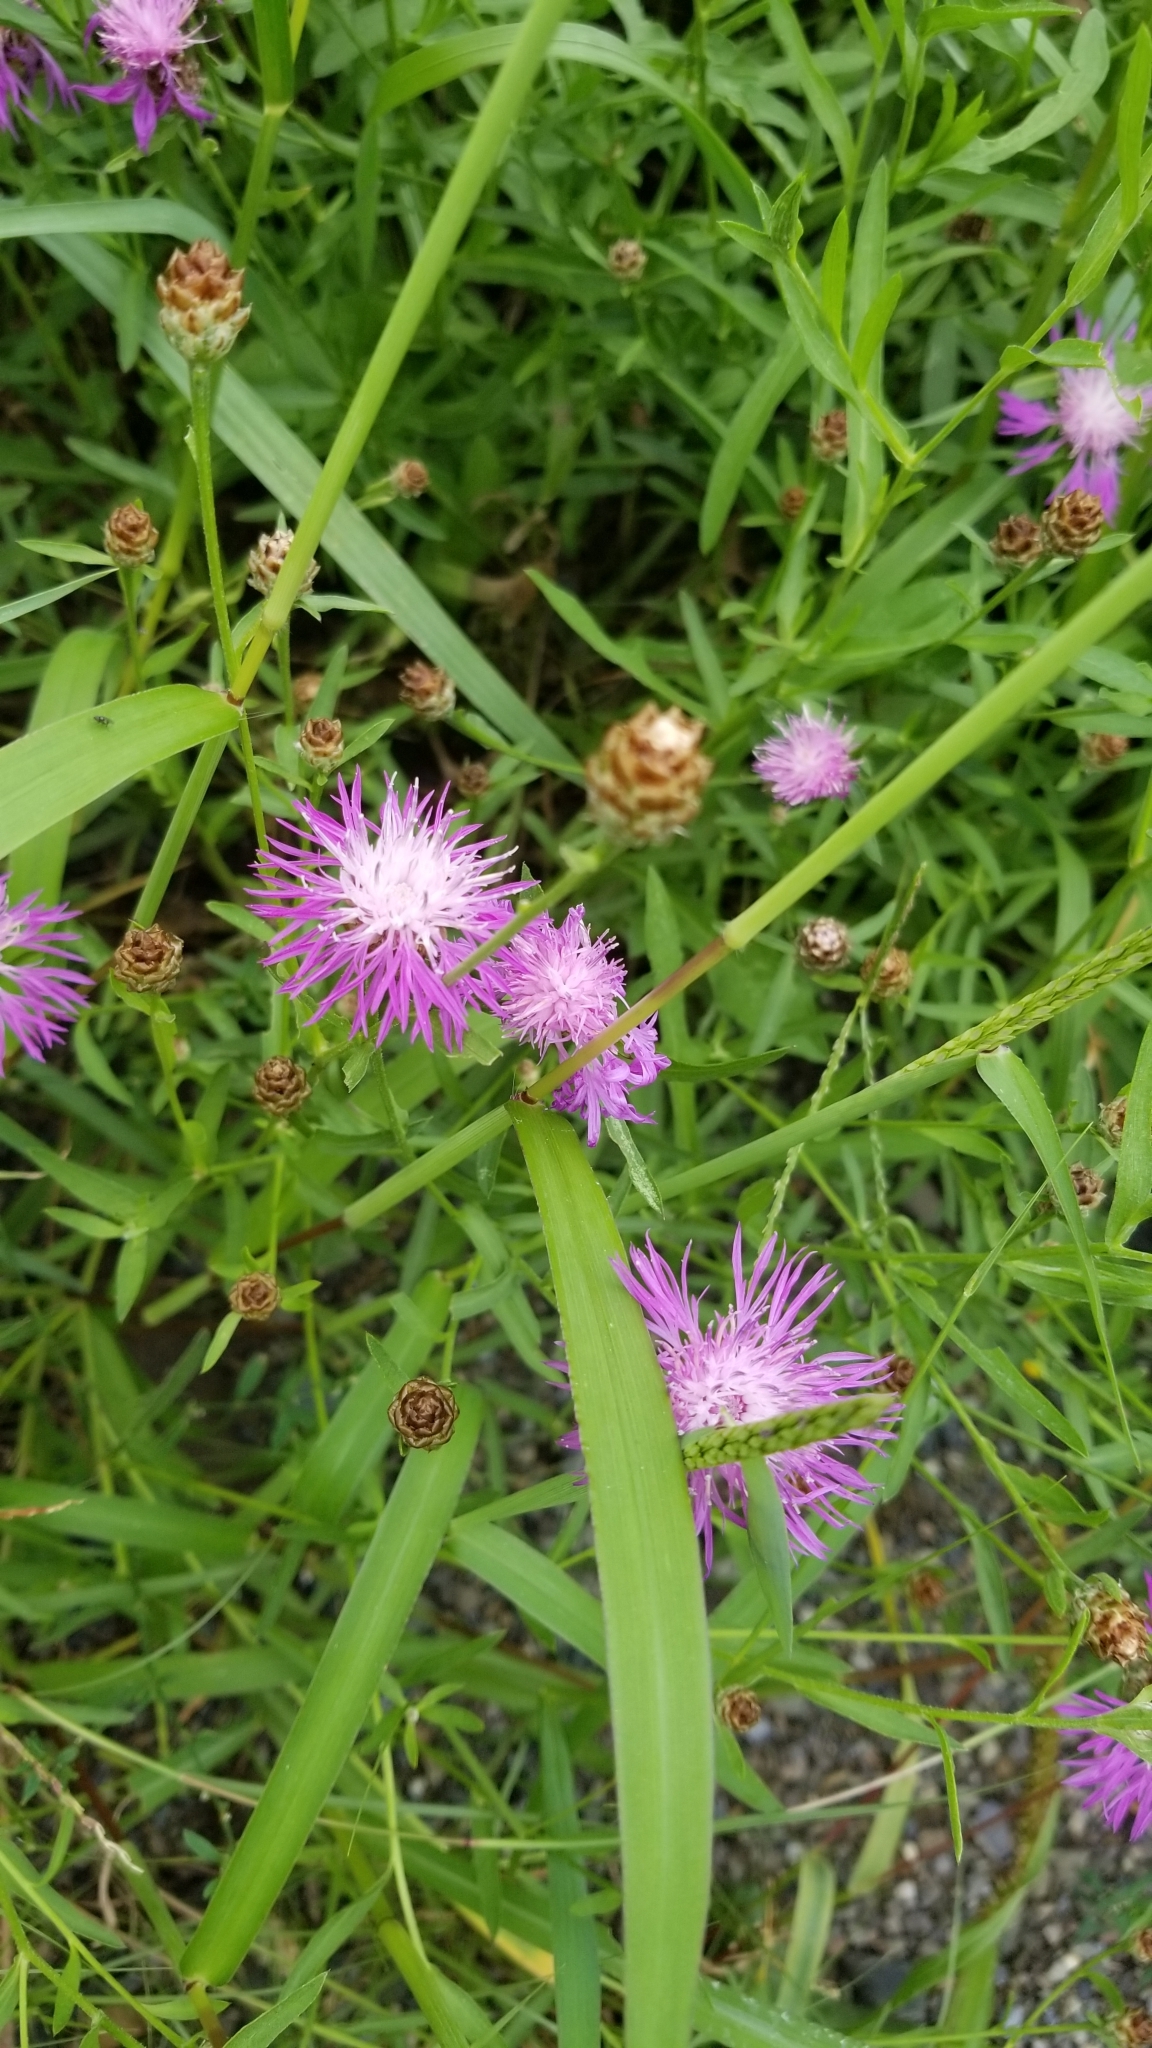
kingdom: Plantae
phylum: Tracheophyta
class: Magnoliopsida
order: Asterales
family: Asteraceae
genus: Centaurea
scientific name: Centaurea stoebe
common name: Spotted knapweed
